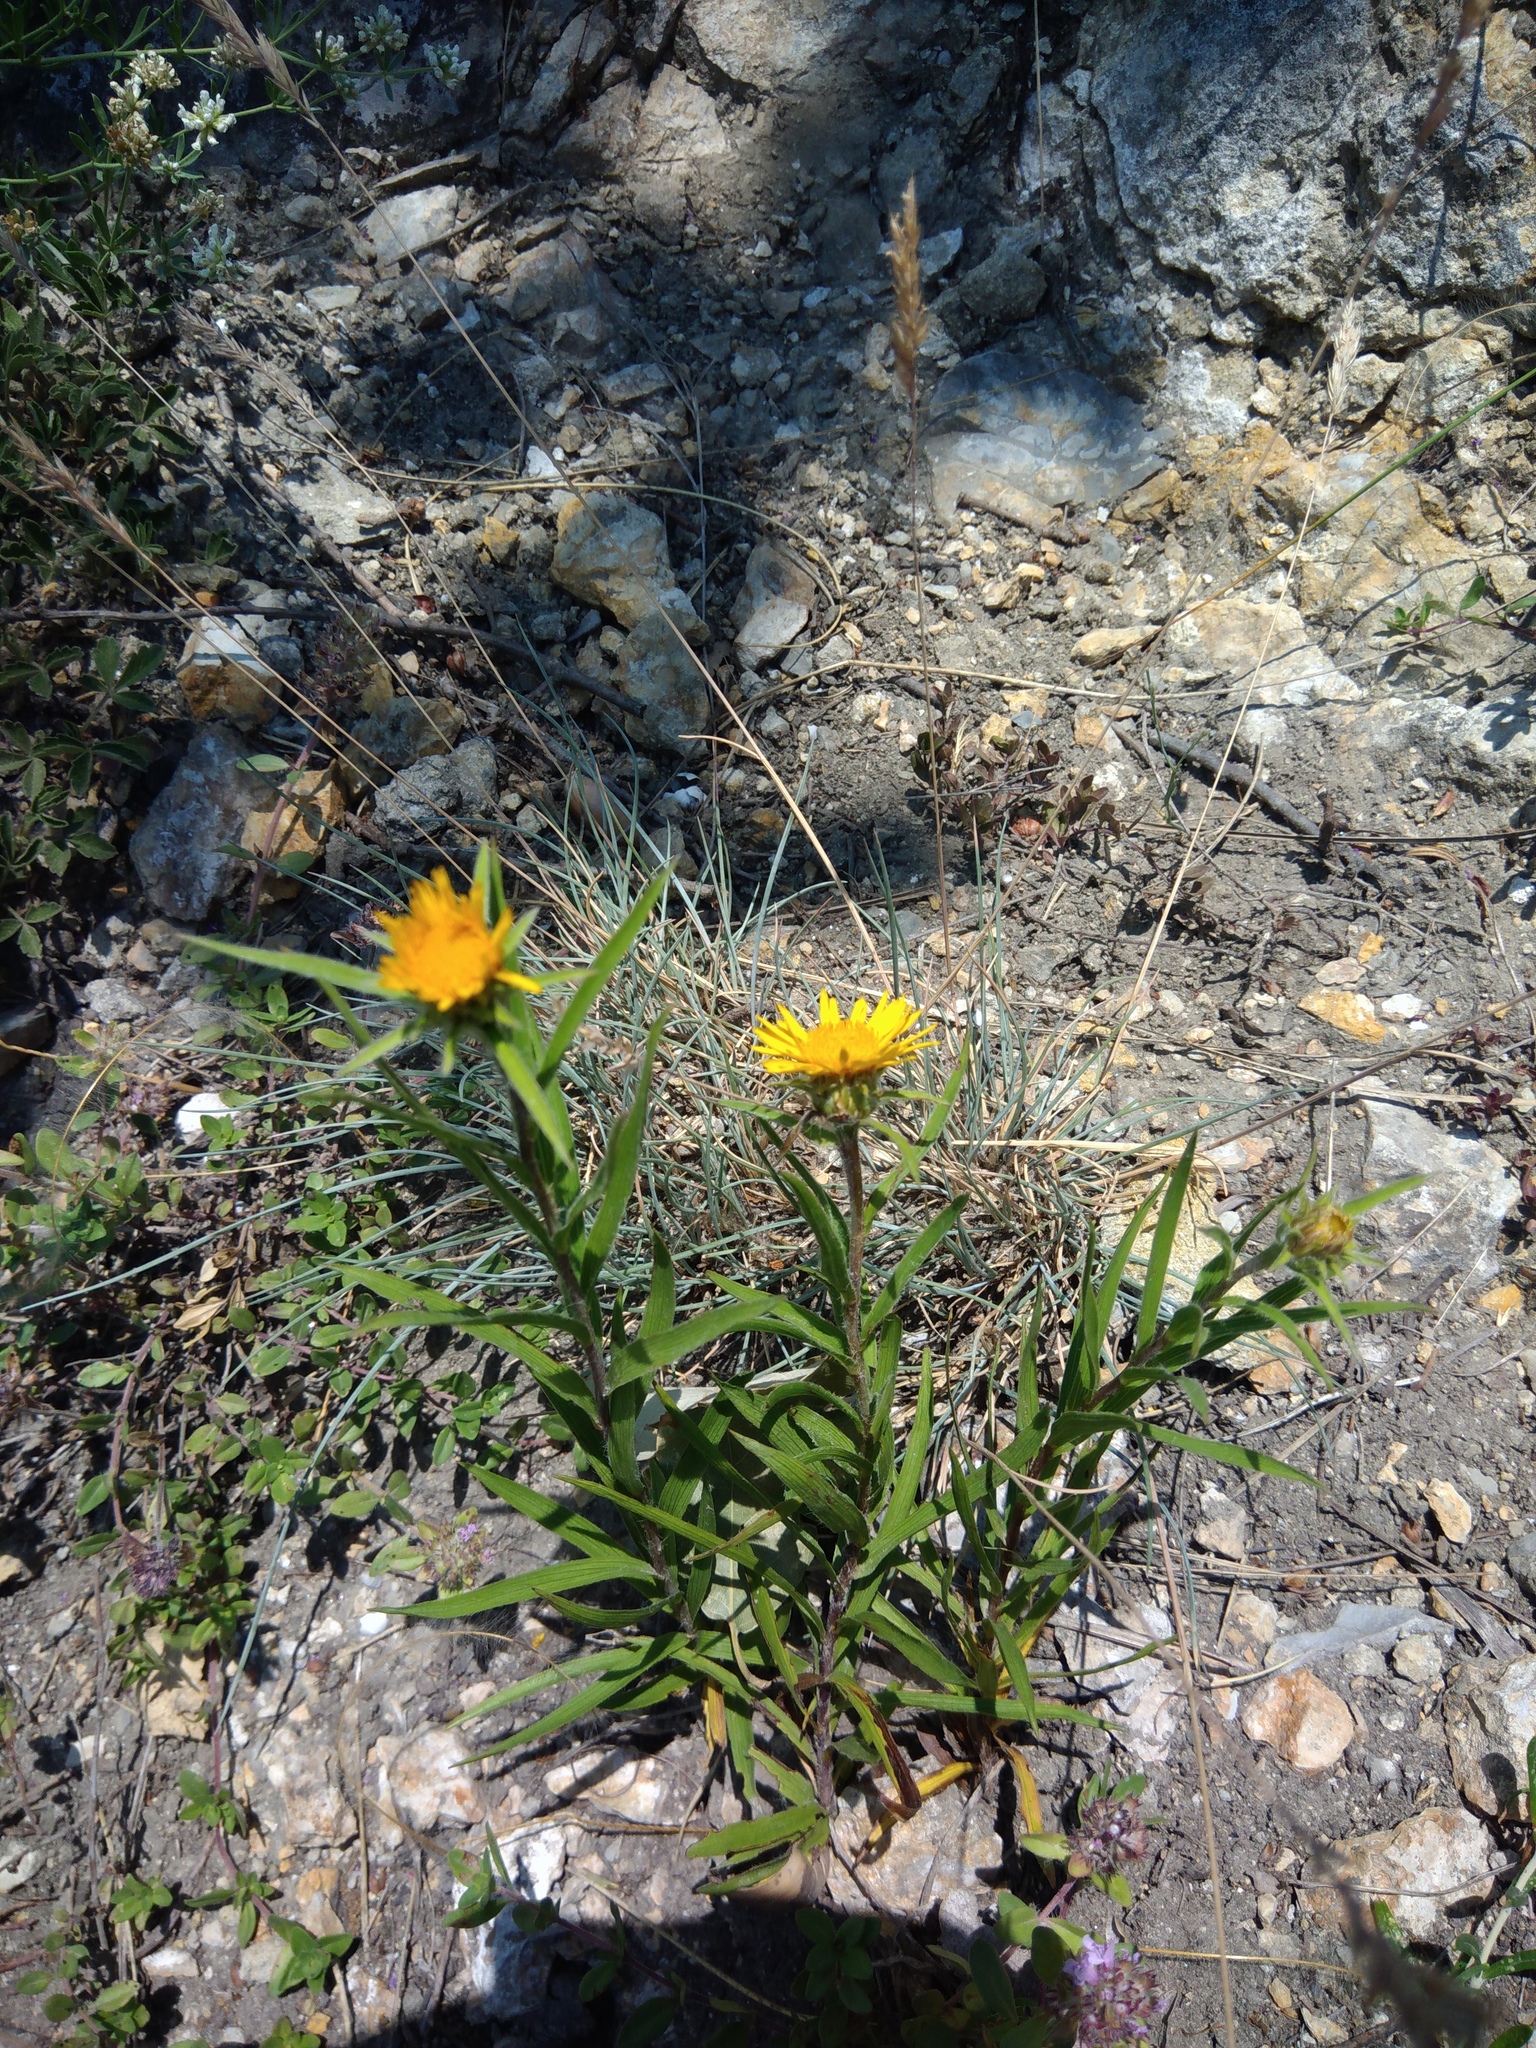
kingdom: Plantae
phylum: Tracheophyta
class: Magnoliopsida
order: Asterales
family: Asteraceae
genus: Pentanema
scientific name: Pentanema ensifolium
